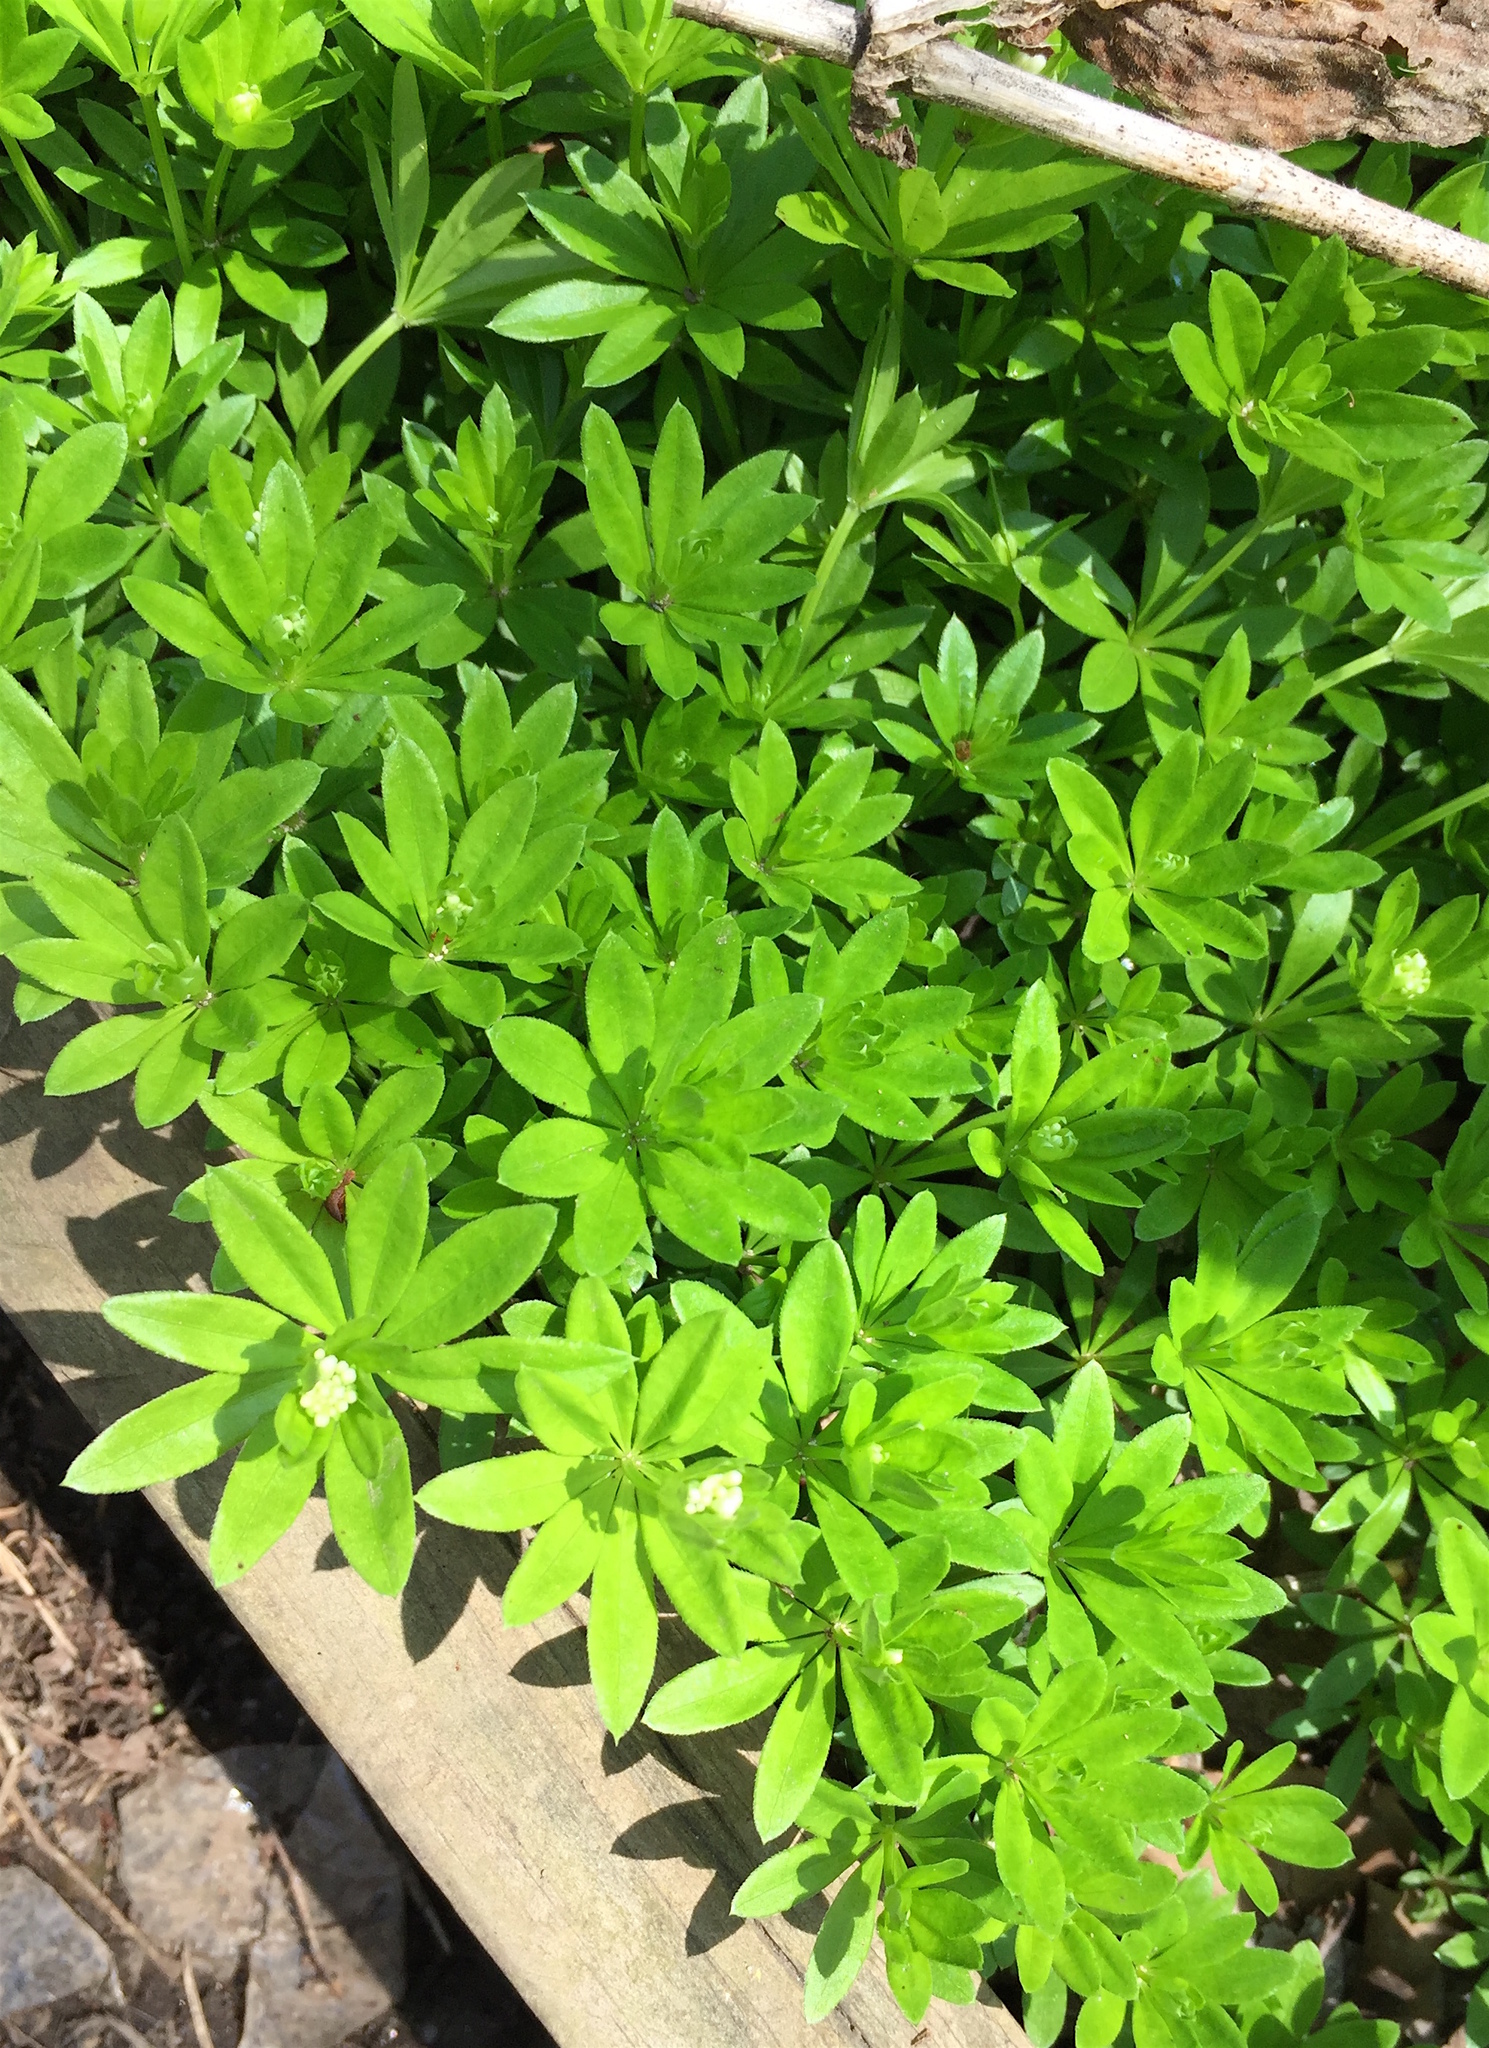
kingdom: Plantae
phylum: Tracheophyta
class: Magnoliopsida
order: Gentianales
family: Rubiaceae
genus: Galium
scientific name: Galium odoratum
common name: Sweet woodruff
